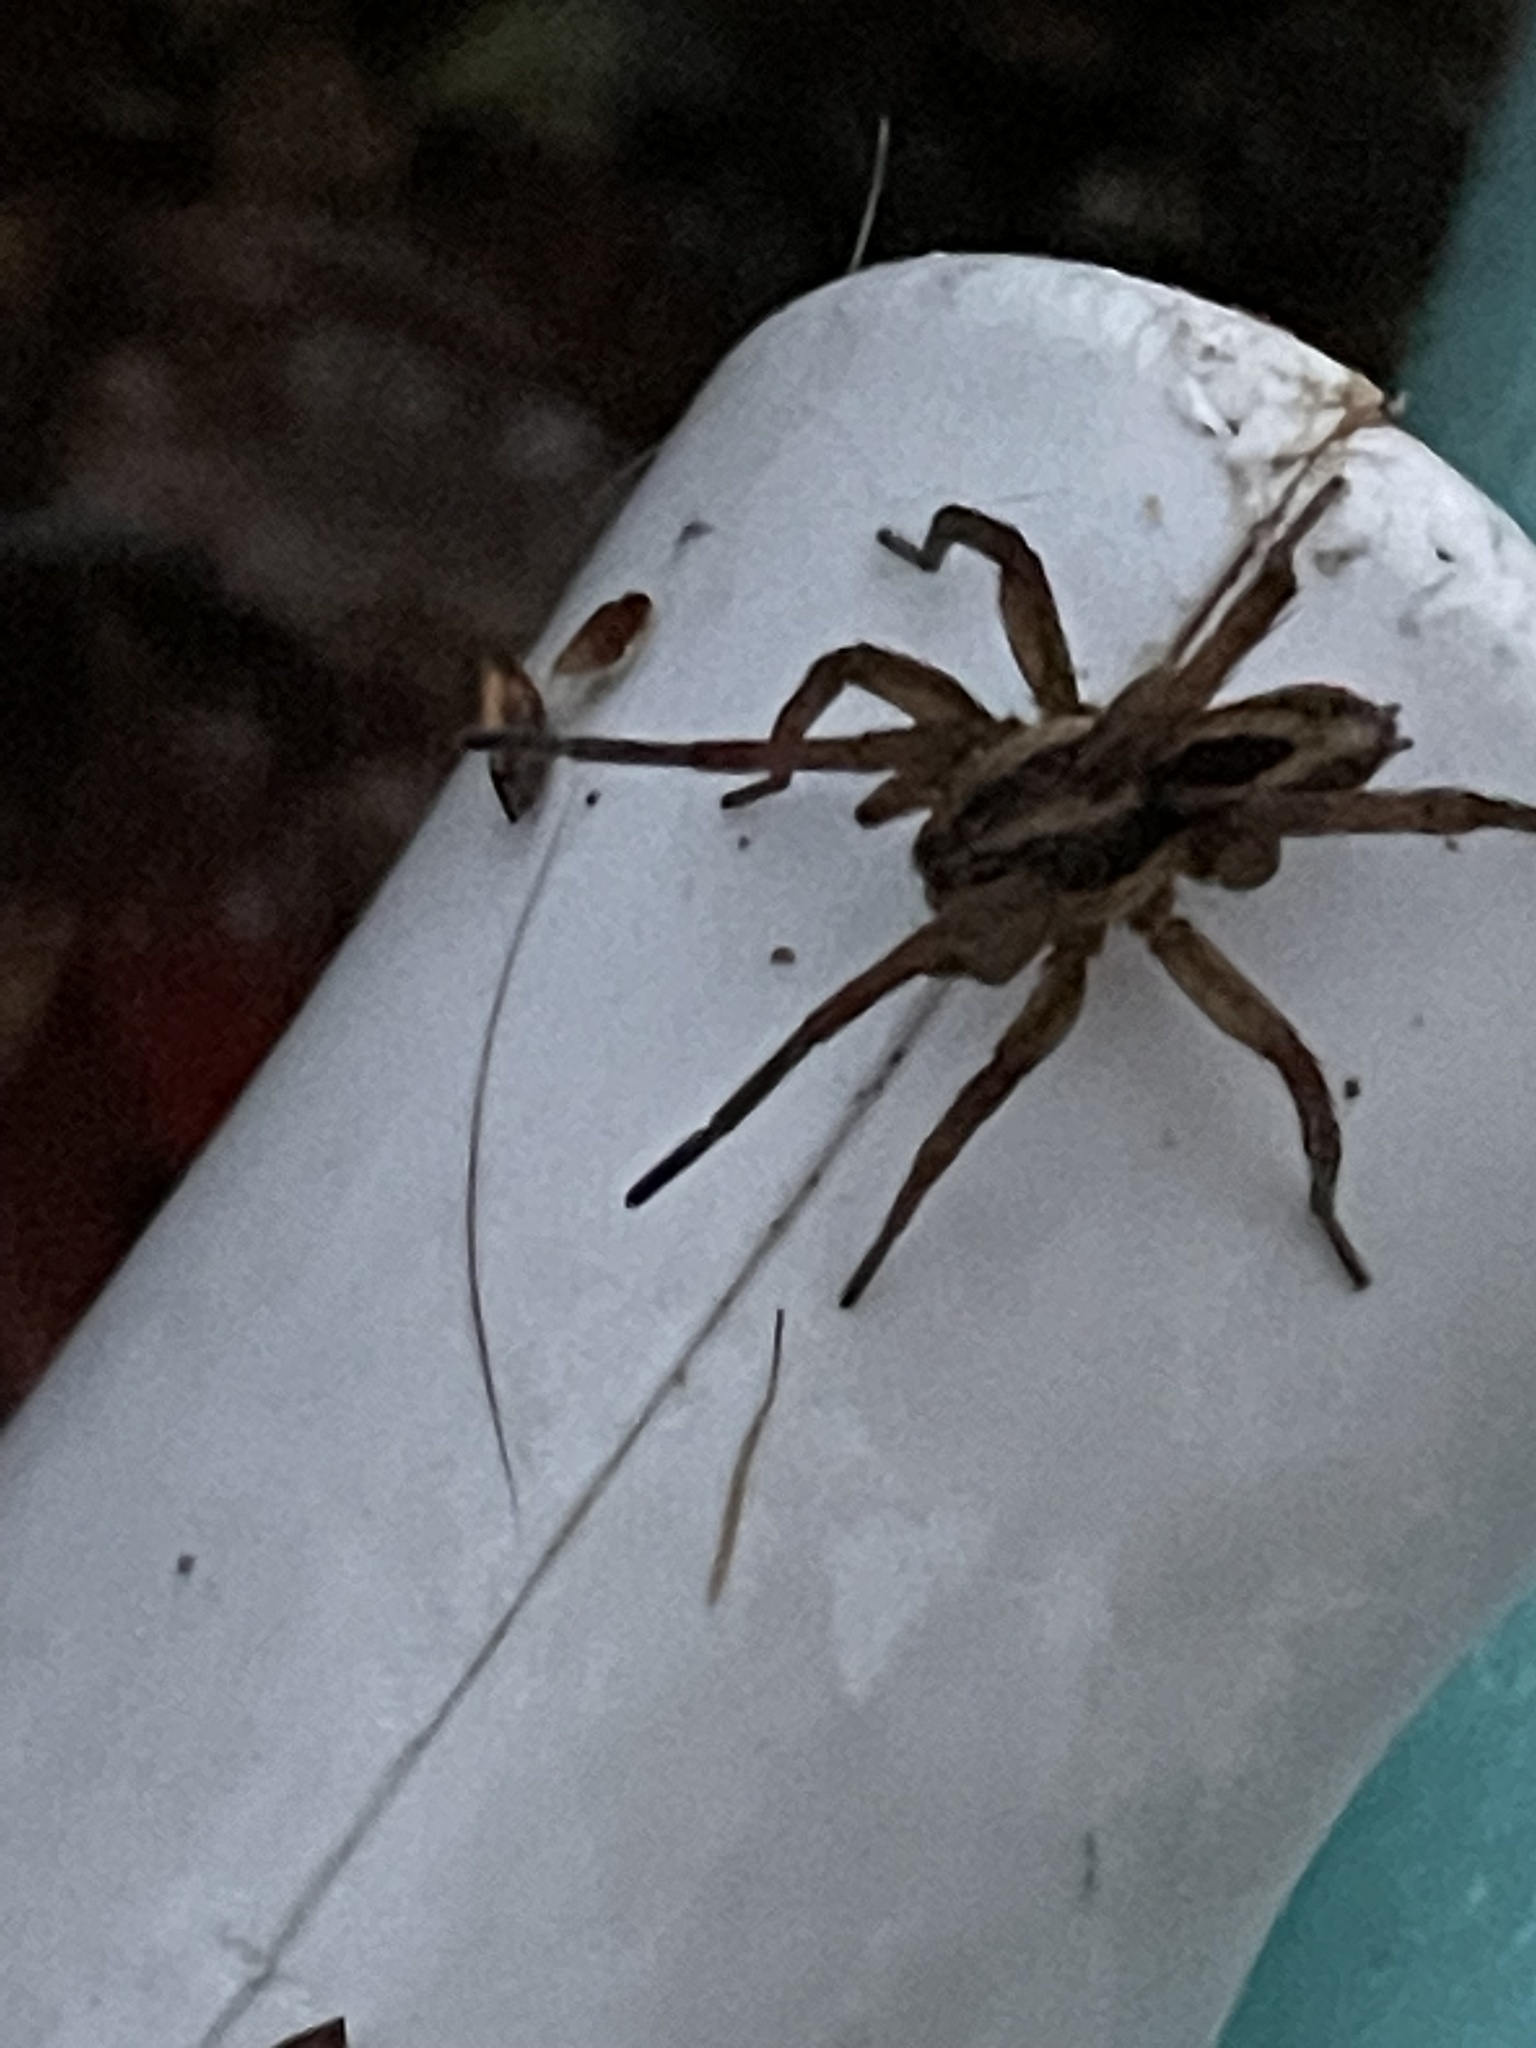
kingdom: Animalia
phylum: Arthropoda
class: Arachnida
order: Araneae
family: Lycosidae
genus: Tigrosa
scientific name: Tigrosa annexa
